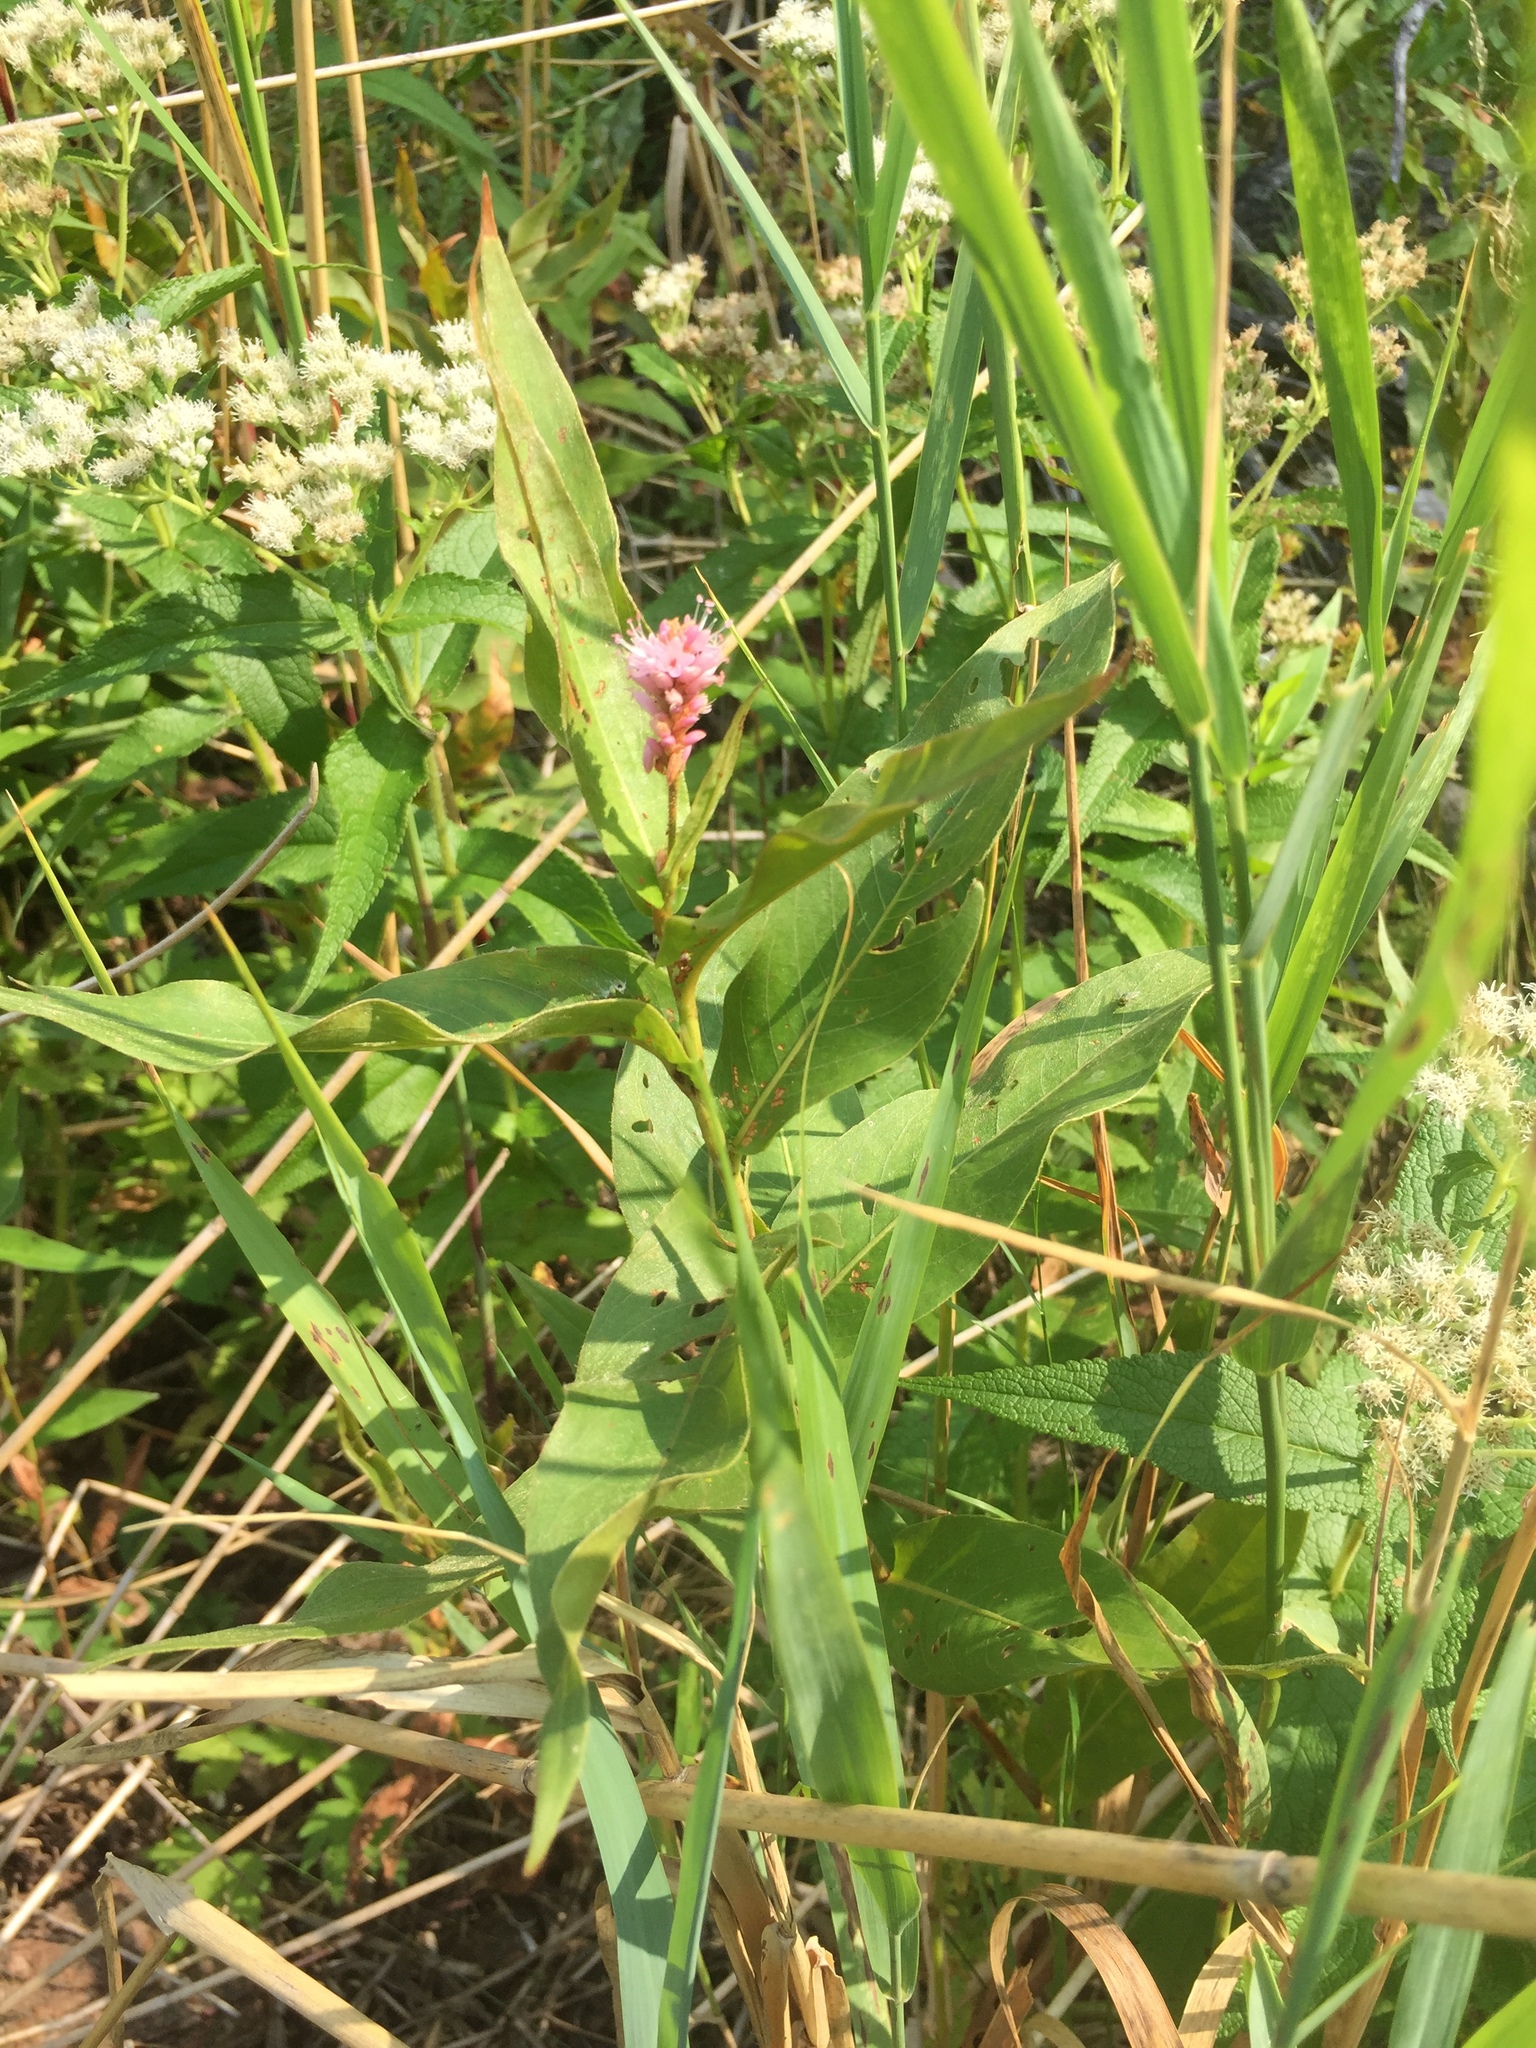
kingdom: Plantae
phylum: Tracheophyta
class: Magnoliopsida
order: Caryophyllales
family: Polygonaceae
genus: Persicaria
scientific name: Persicaria amphibia
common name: Amphibious bistort
